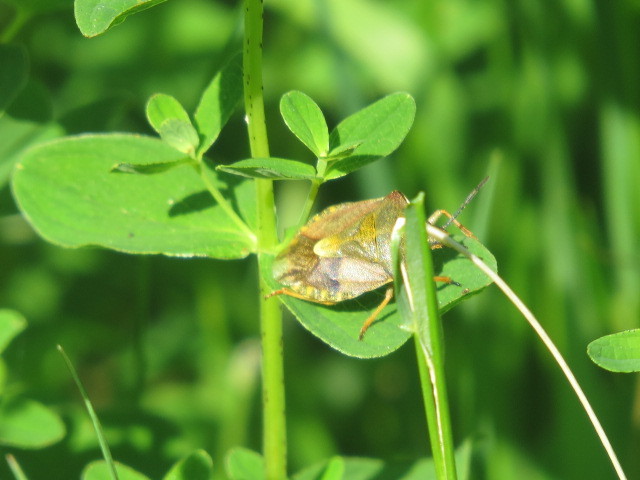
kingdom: Animalia
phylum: Arthropoda
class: Insecta
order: Hemiptera
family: Pentatomidae
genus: Carpocoris
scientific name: Carpocoris melanocerus
